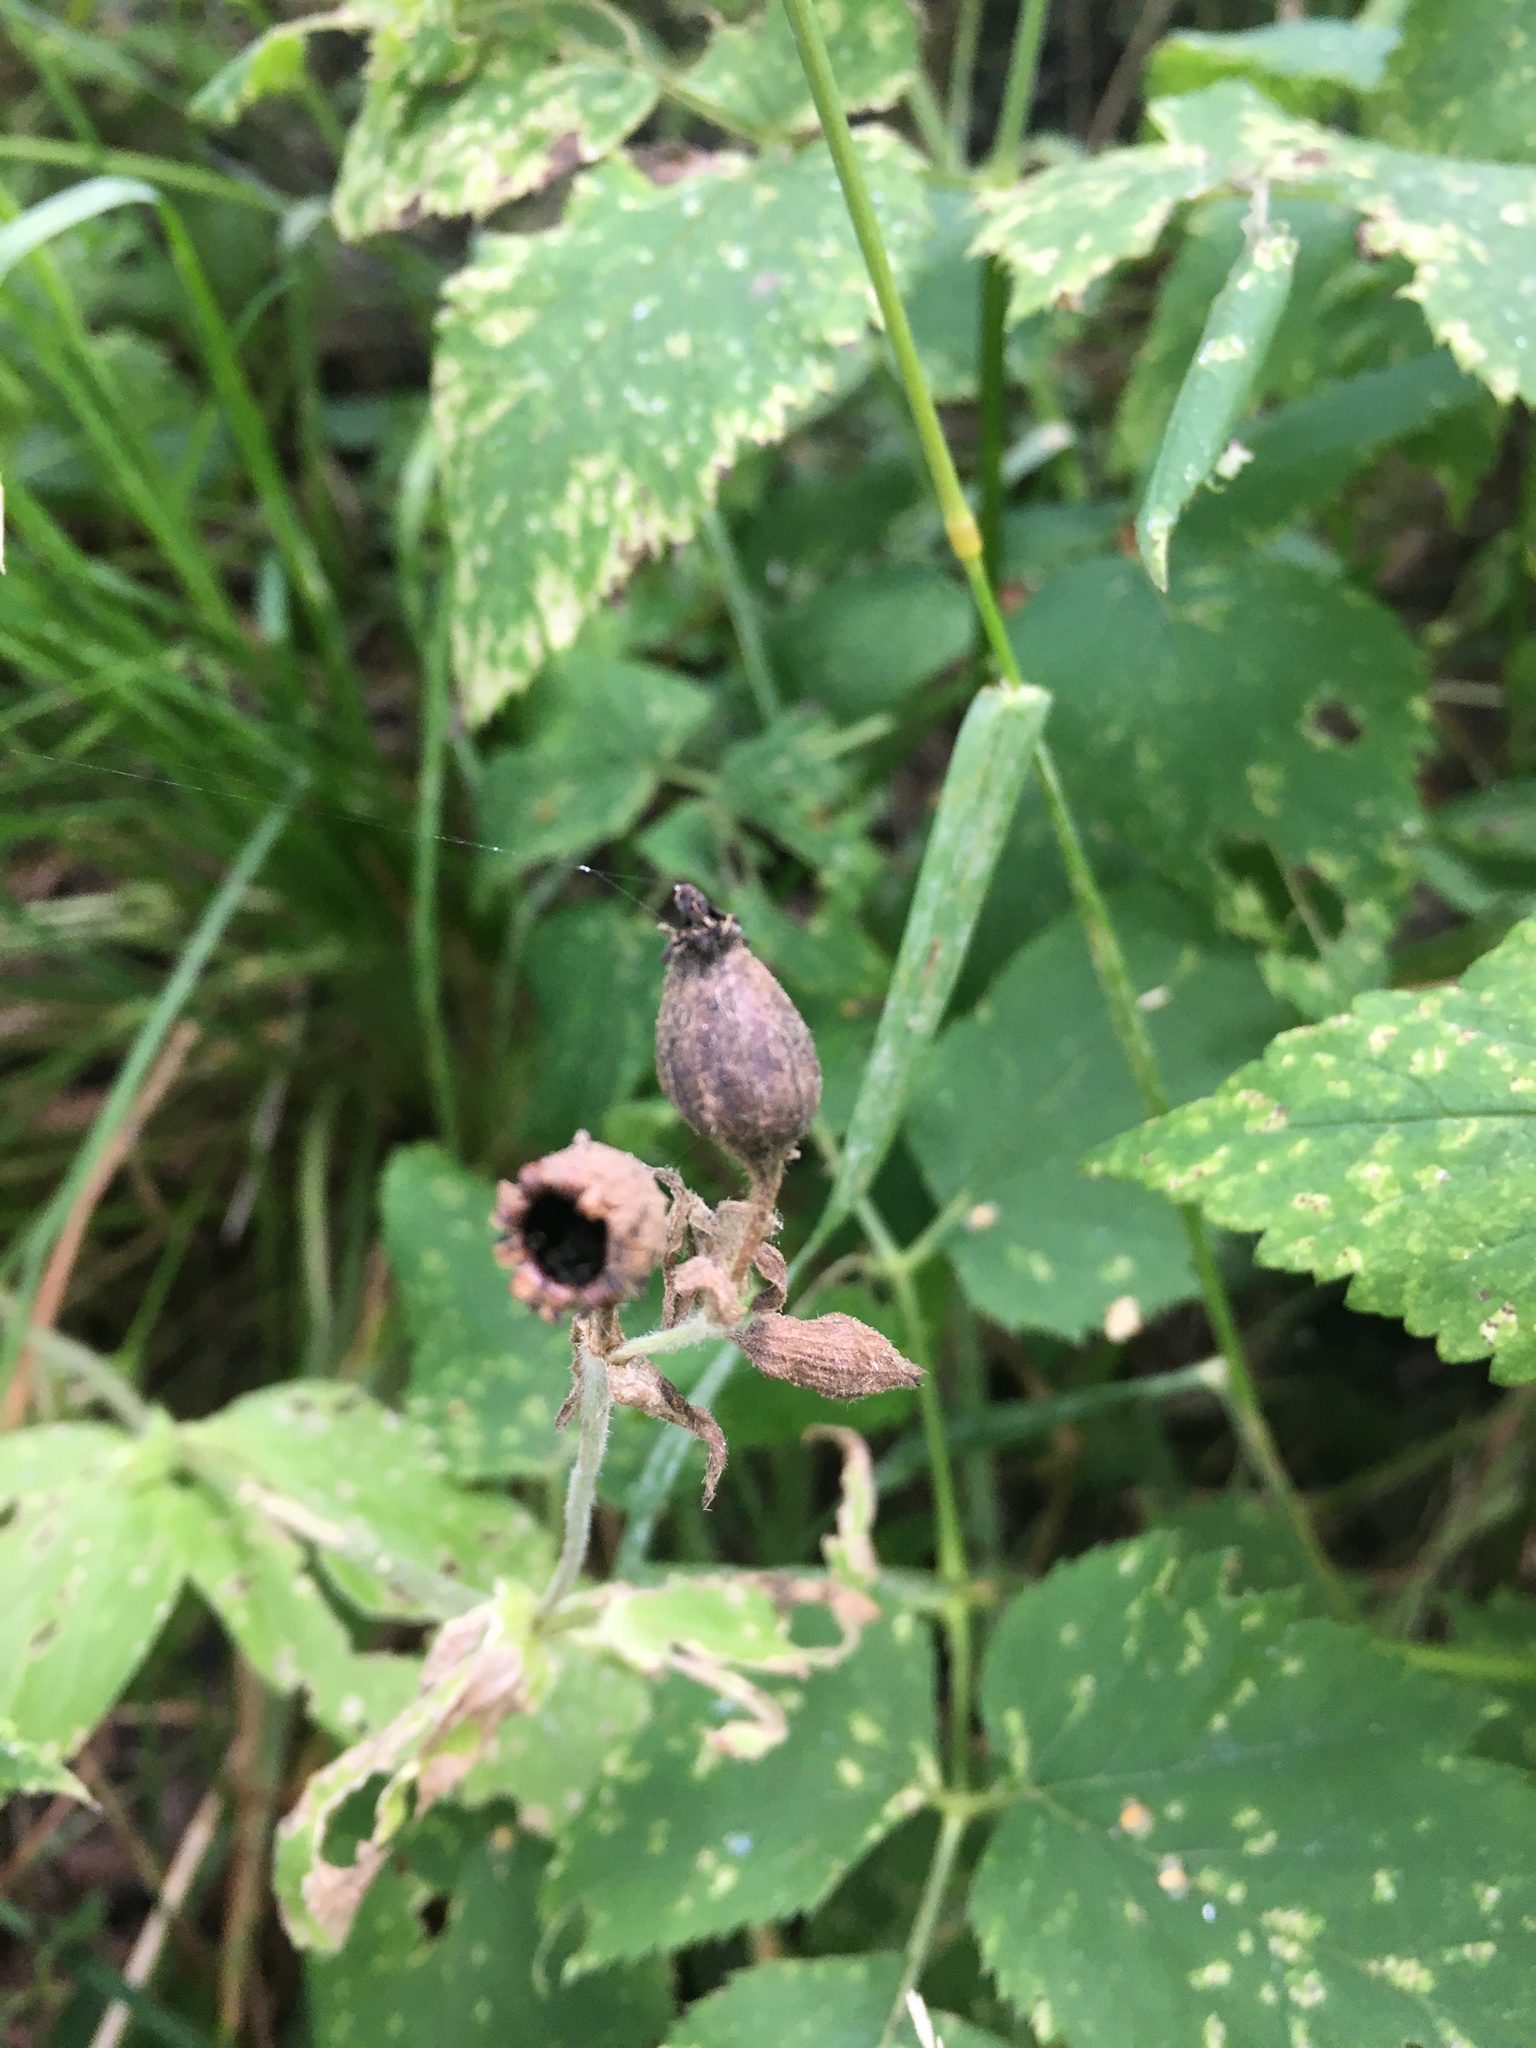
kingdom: Plantae
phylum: Tracheophyta
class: Magnoliopsida
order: Caryophyllales
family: Caryophyllaceae
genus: Silene
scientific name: Silene dioica
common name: Red campion
